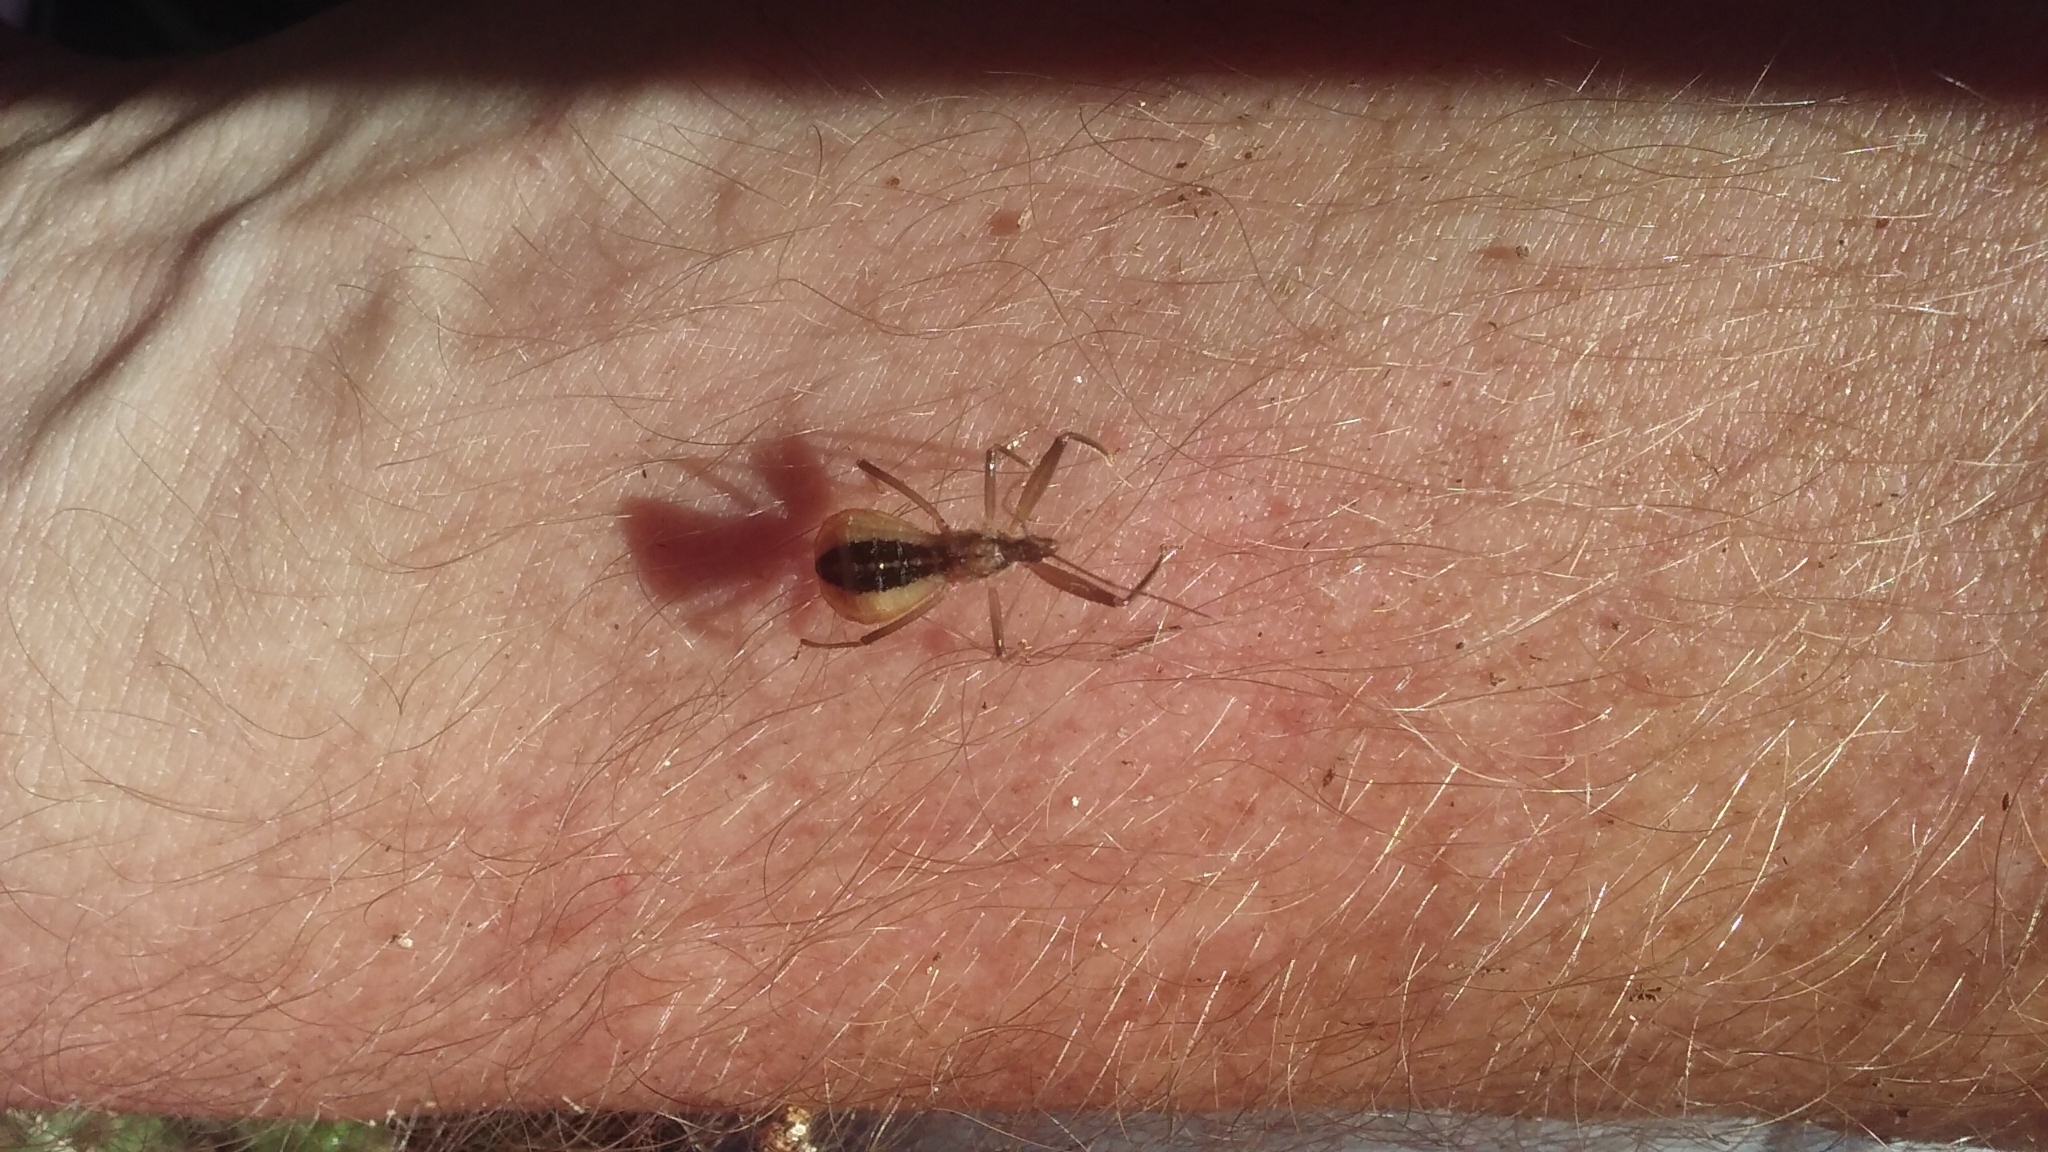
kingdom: Animalia
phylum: Arthropoda
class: Insecta
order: Hemiptera
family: Reduviidae
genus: Fitchia
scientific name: Fitchia aptera
